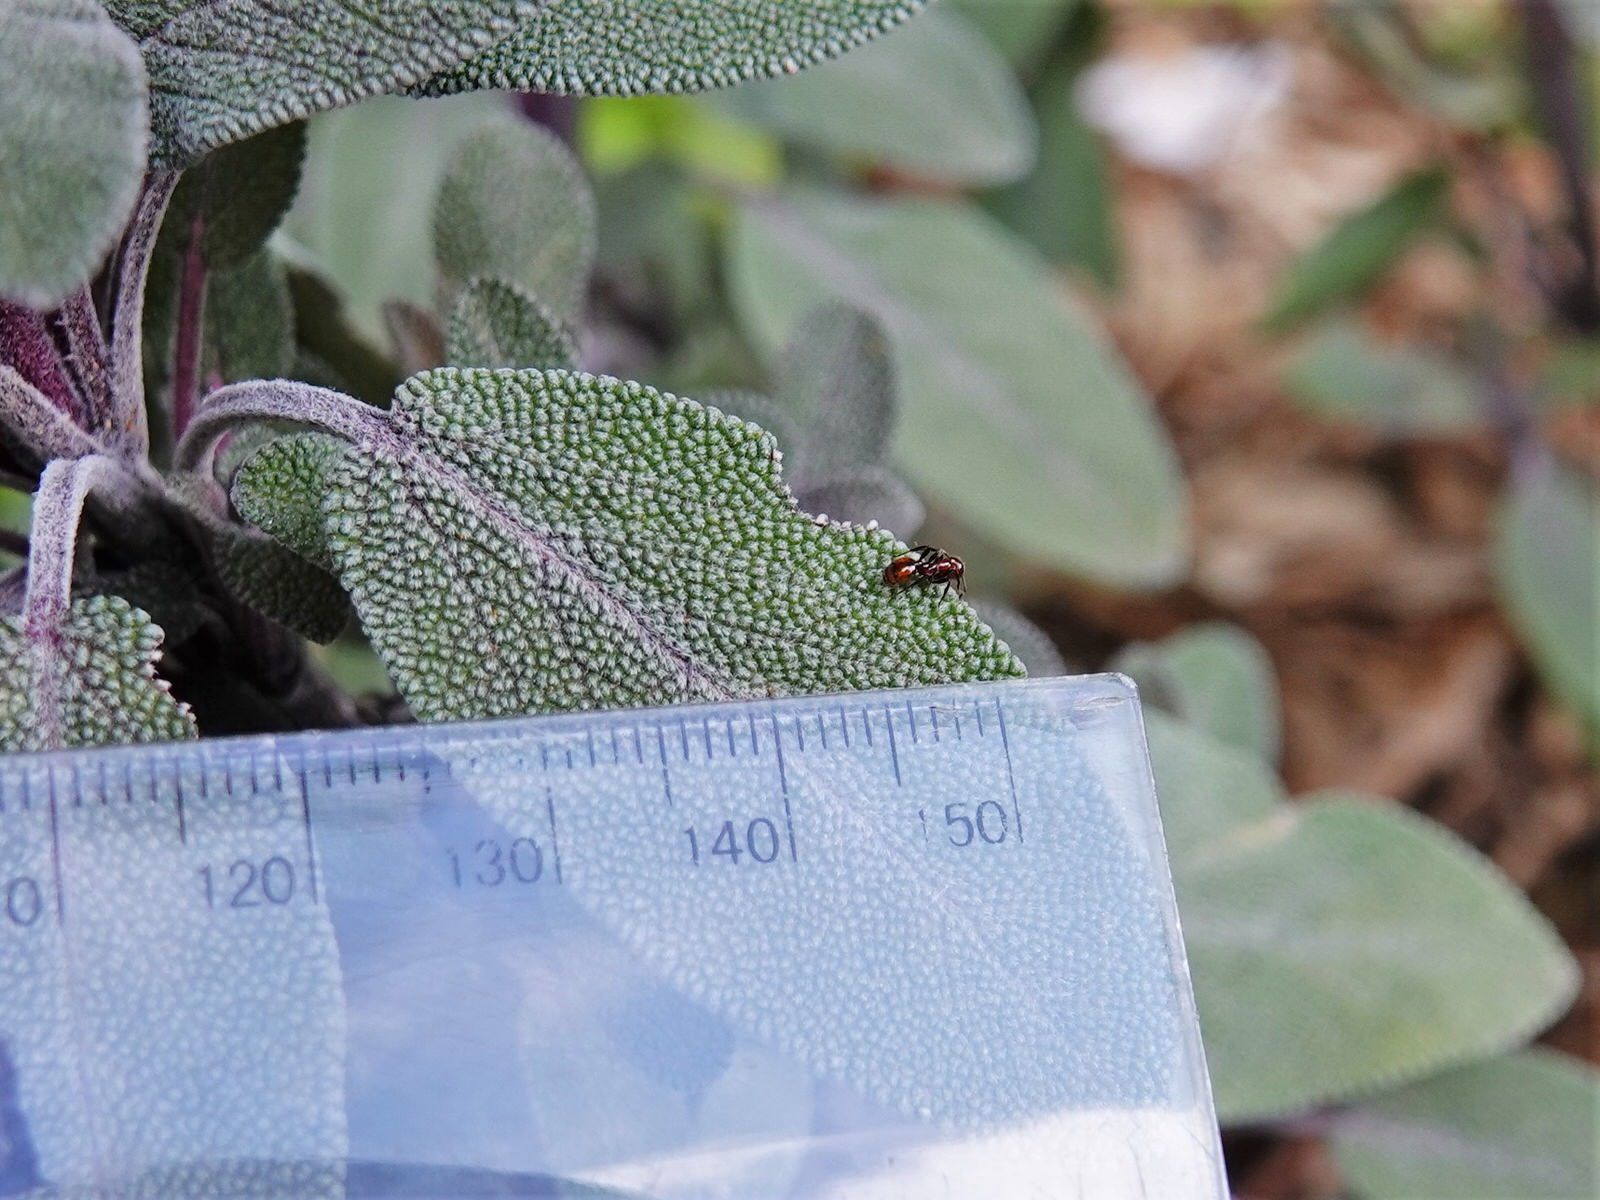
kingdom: Animalia
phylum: Arthropoda
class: Insecta
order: Hymenoptera
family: Formicidae
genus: Monomorium
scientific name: Monomorium antarcticum
